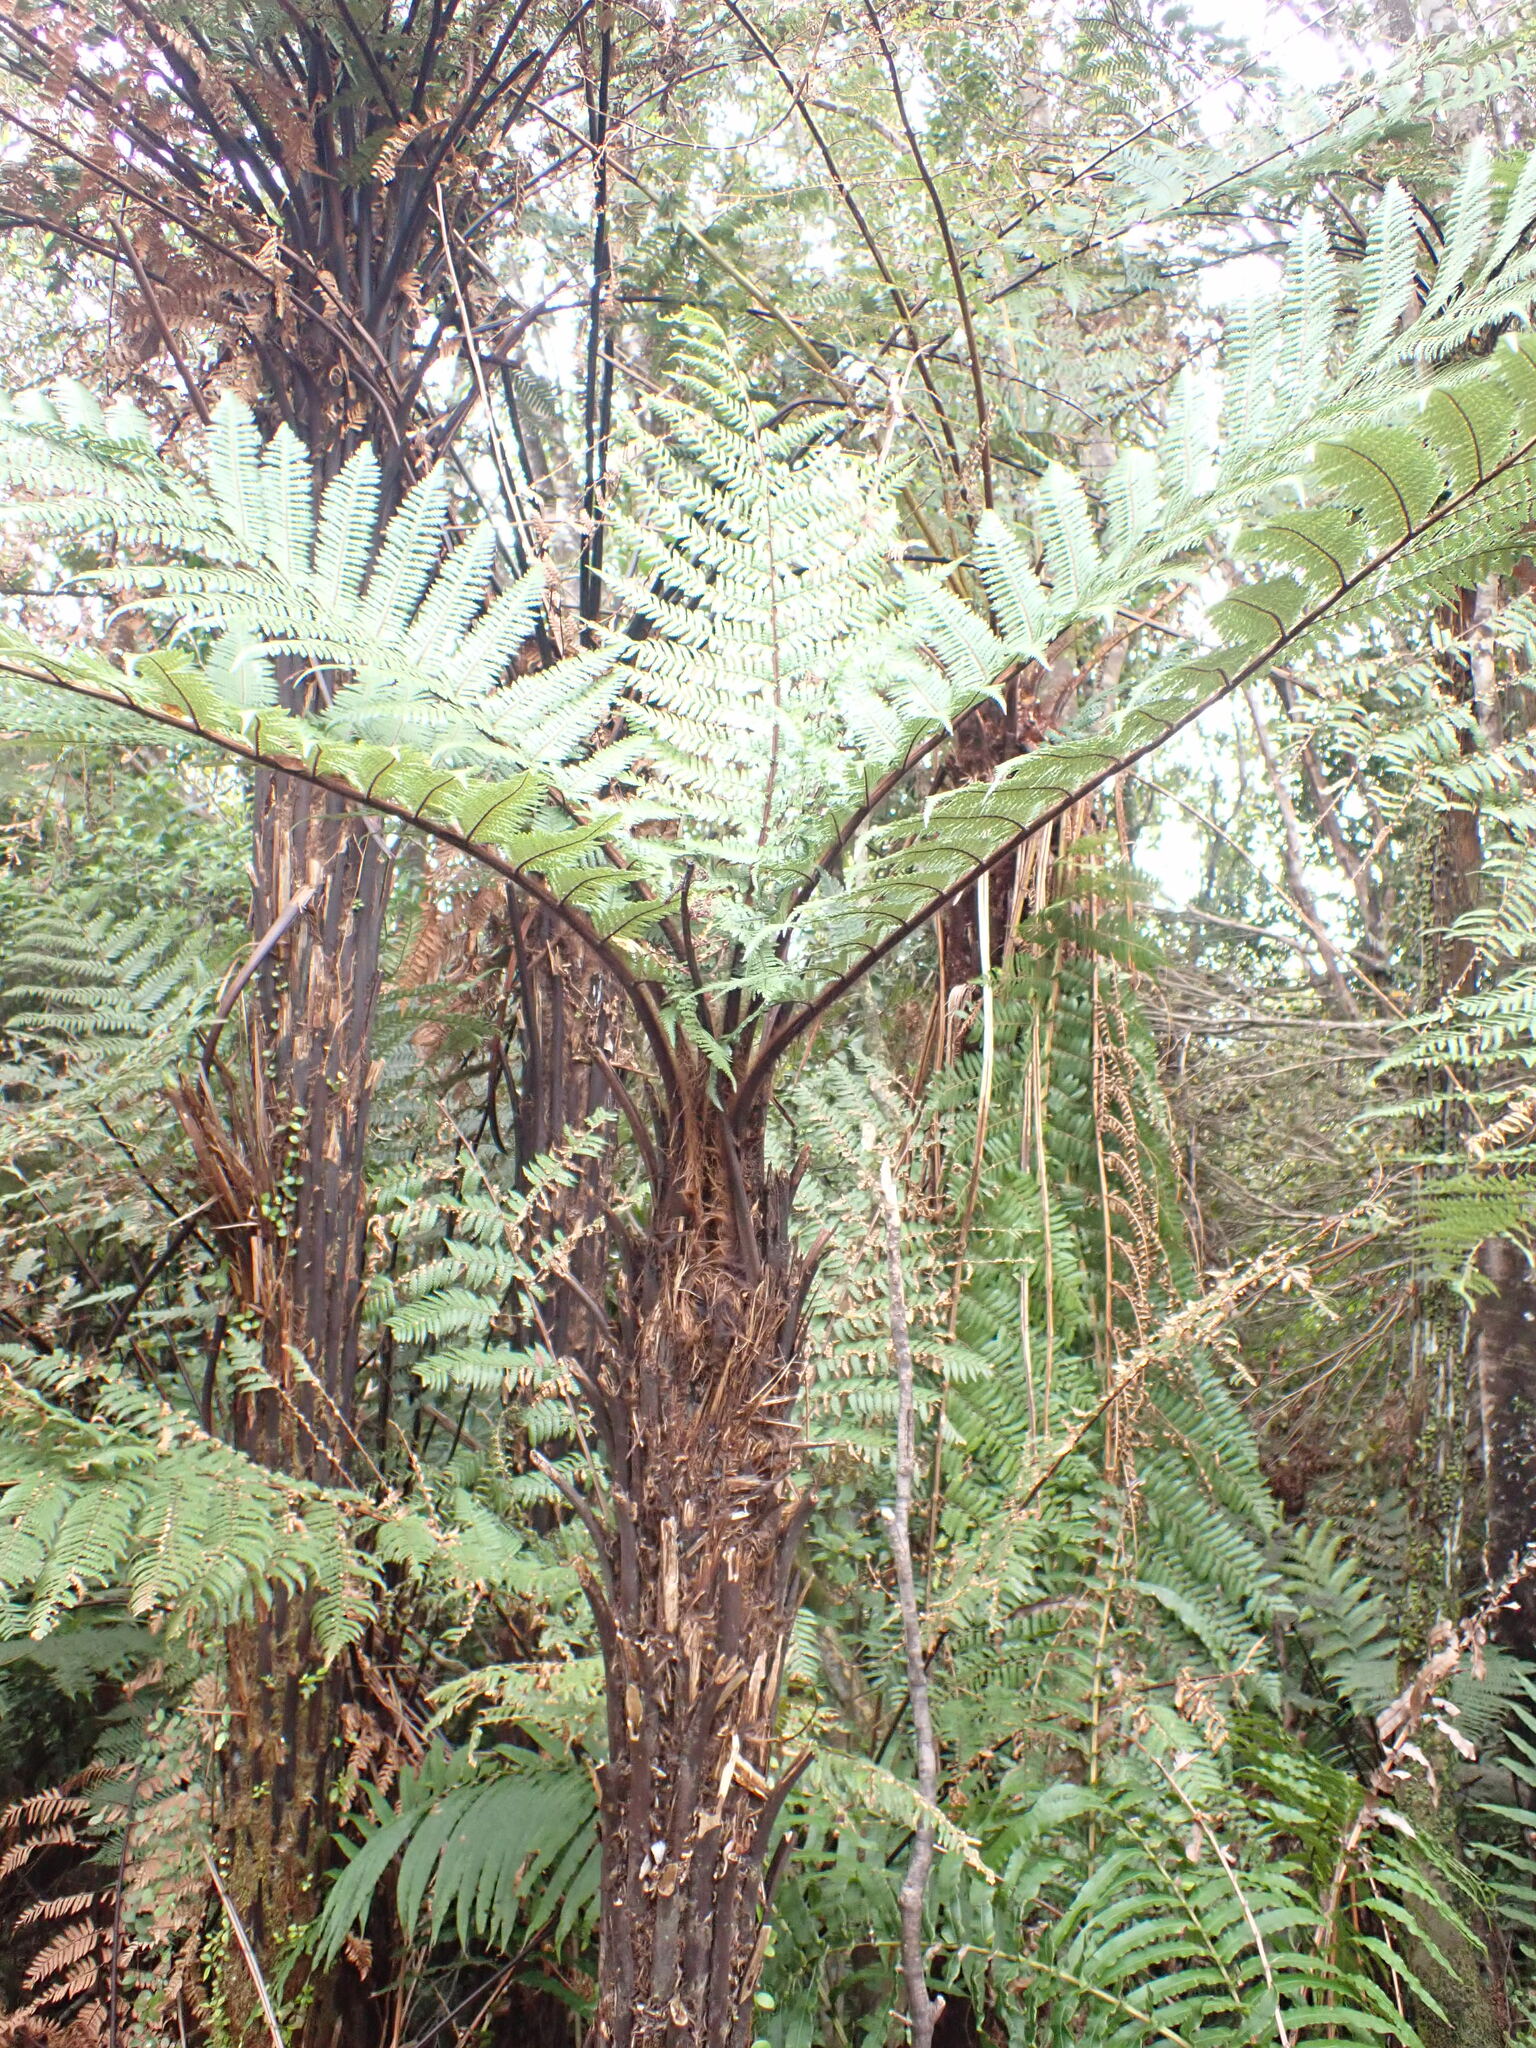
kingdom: Plantae
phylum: Tracheophyta
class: Polypodiopsida
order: Cyatheales
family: Dicksoniaceae
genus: Dicksonia
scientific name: Dicksonia squarrosa
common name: Hard treefern
